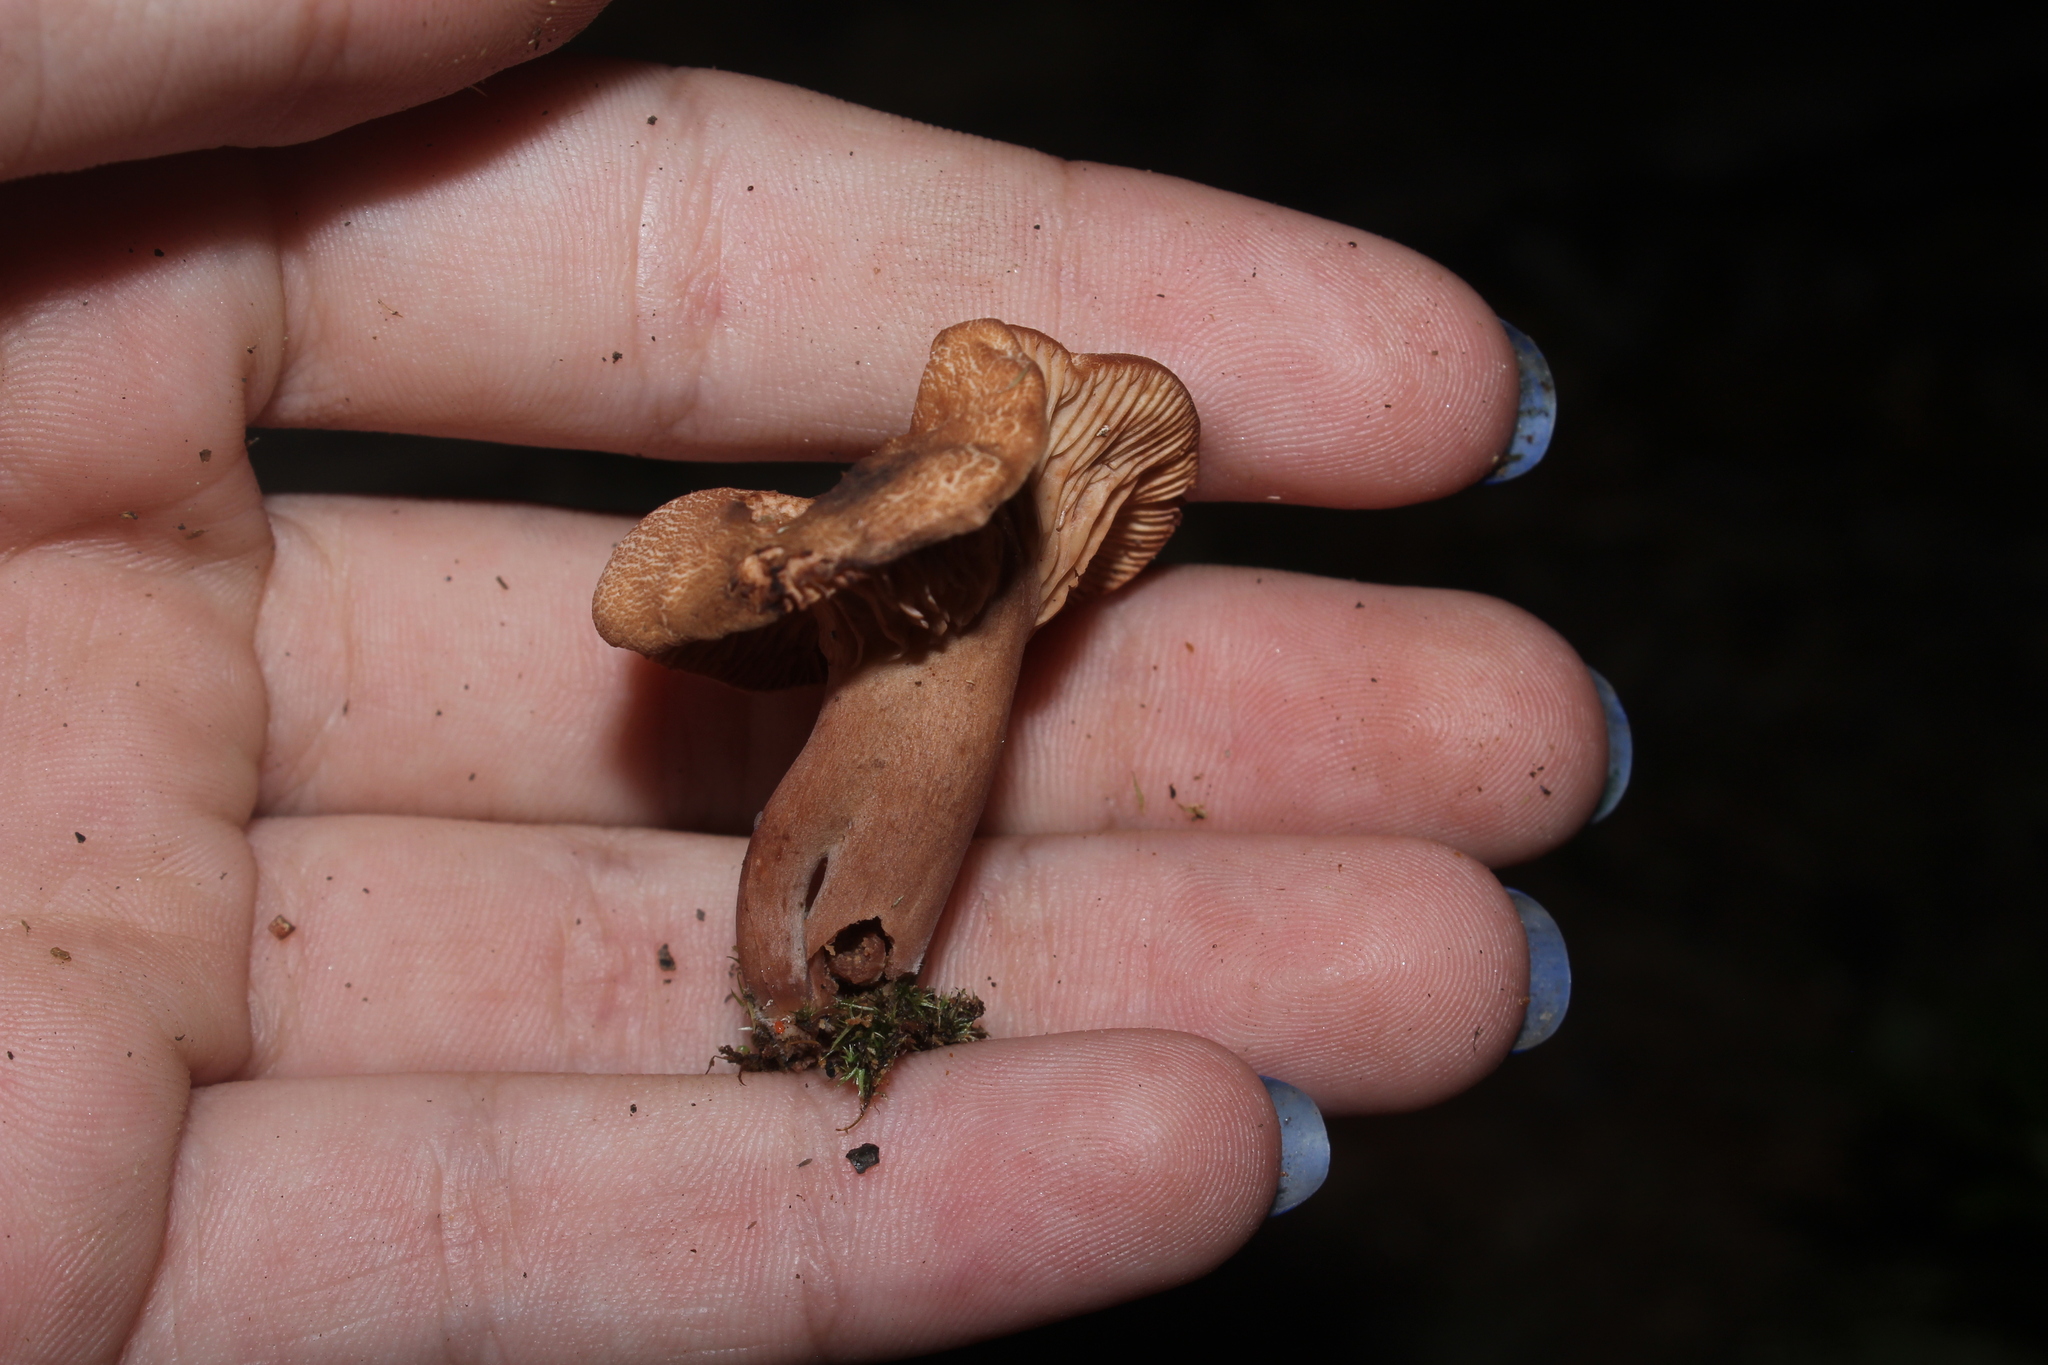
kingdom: Fungi
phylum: Basidiomycota
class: Agaricomycetes
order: Russulales
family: Russulaceae
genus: Lactarius
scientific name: Lactarius rimosellus
